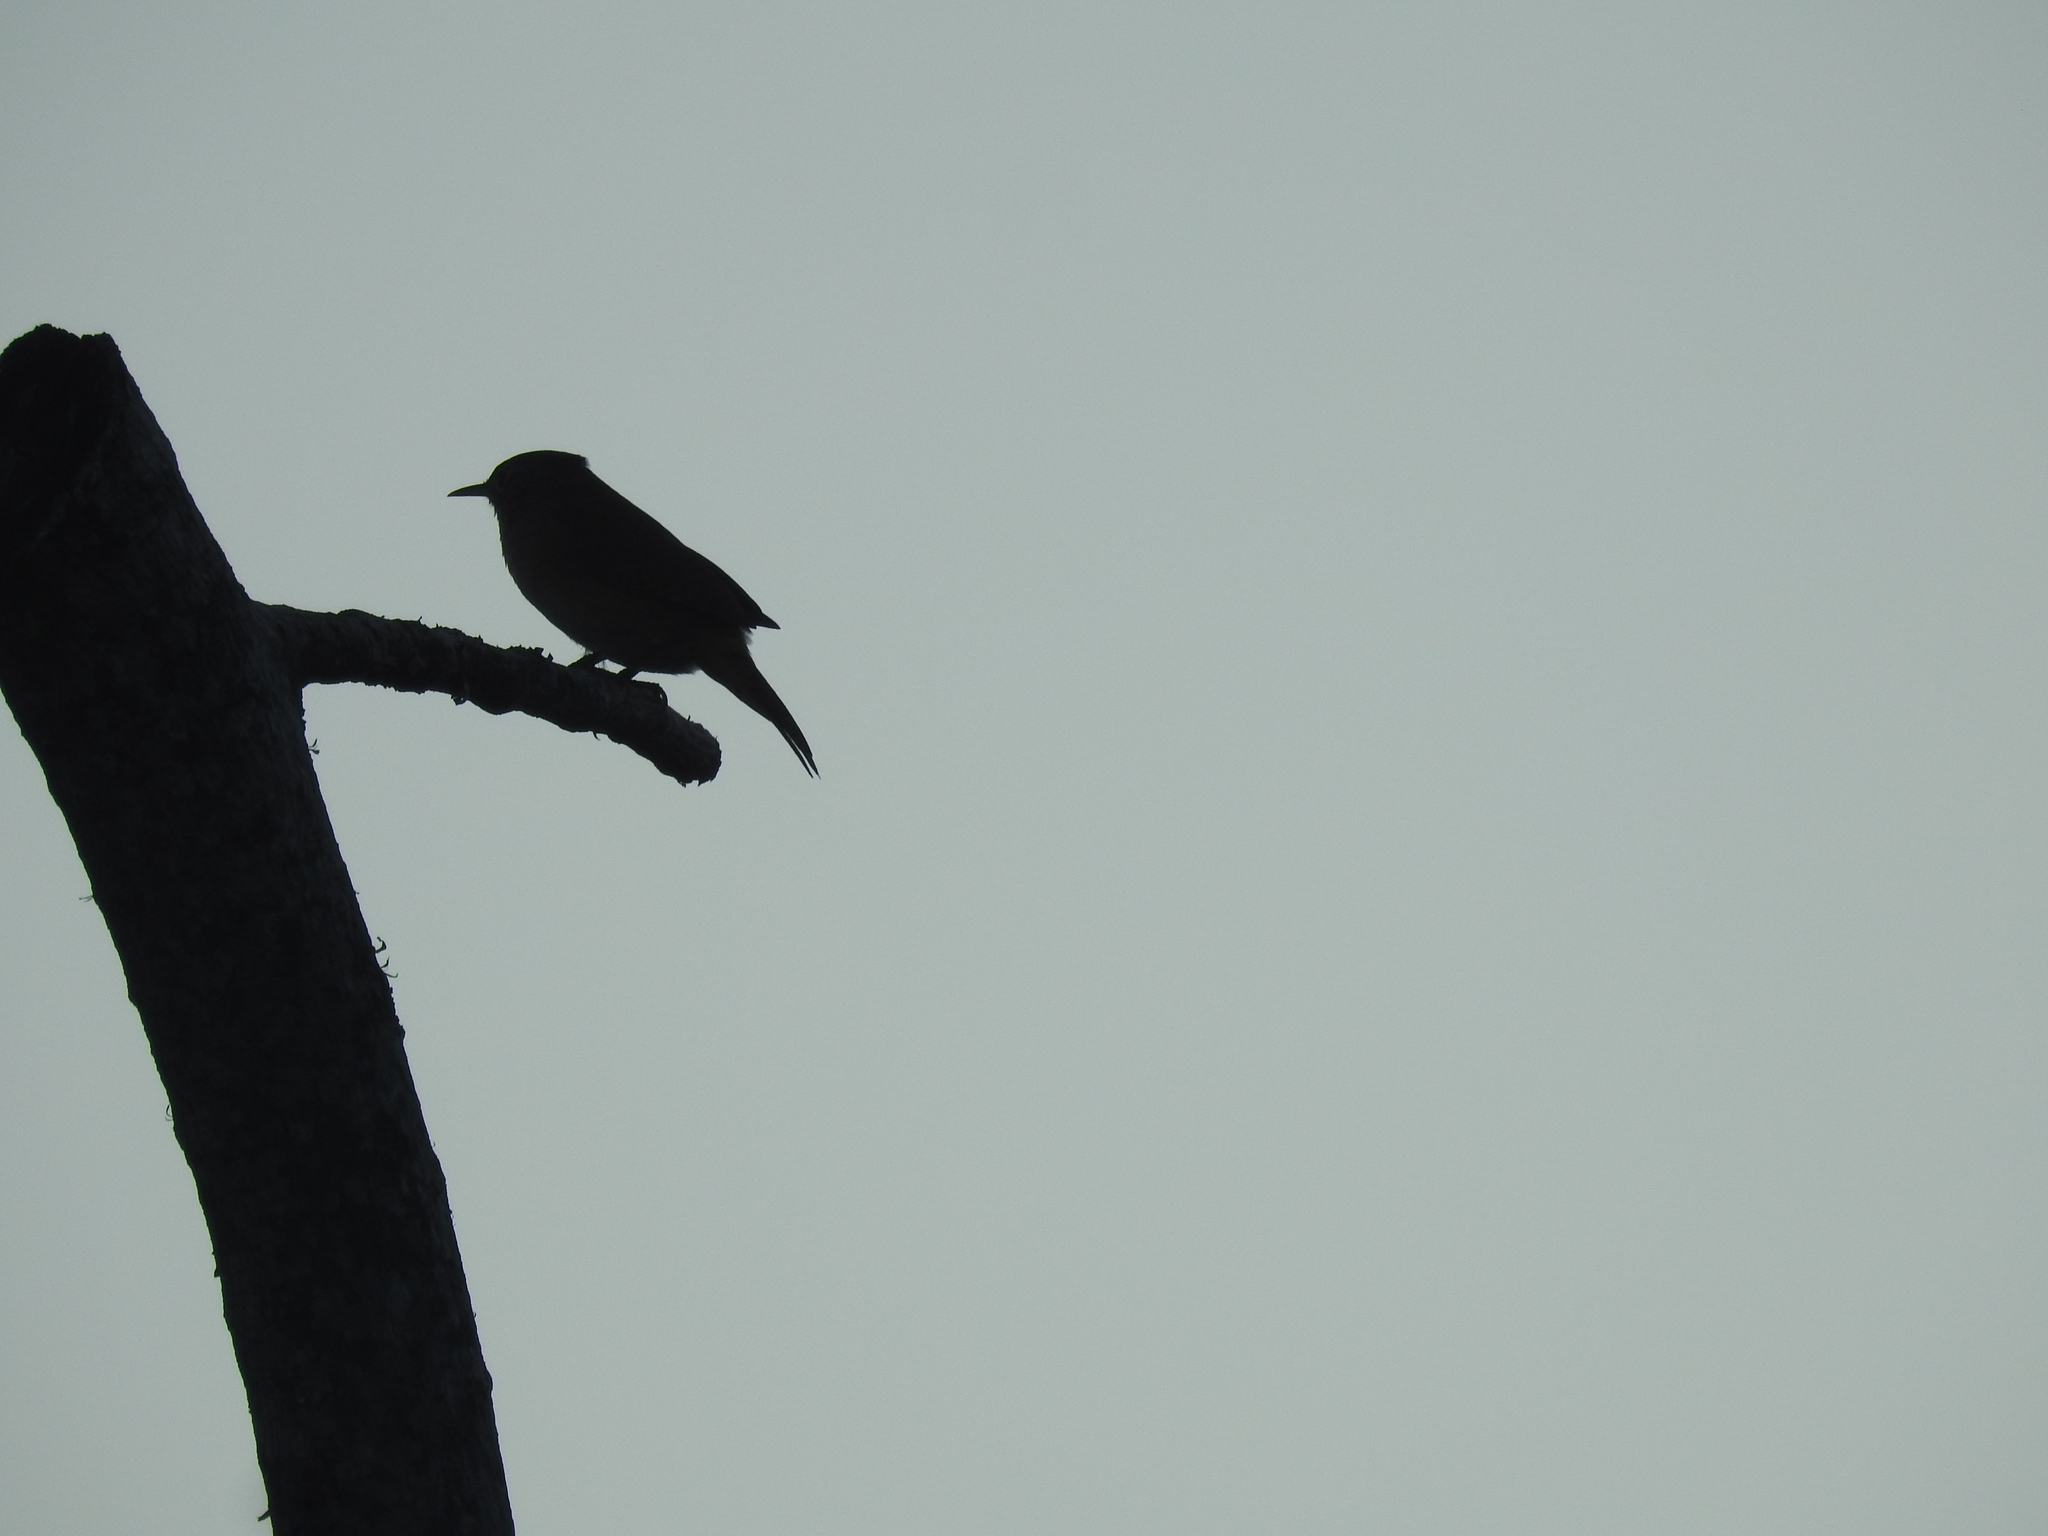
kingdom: Animalia
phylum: Chordata
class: Aves
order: Passeriformes
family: Troglodytidae
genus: Troglodytes
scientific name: Troglodytes aedon
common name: House wren
